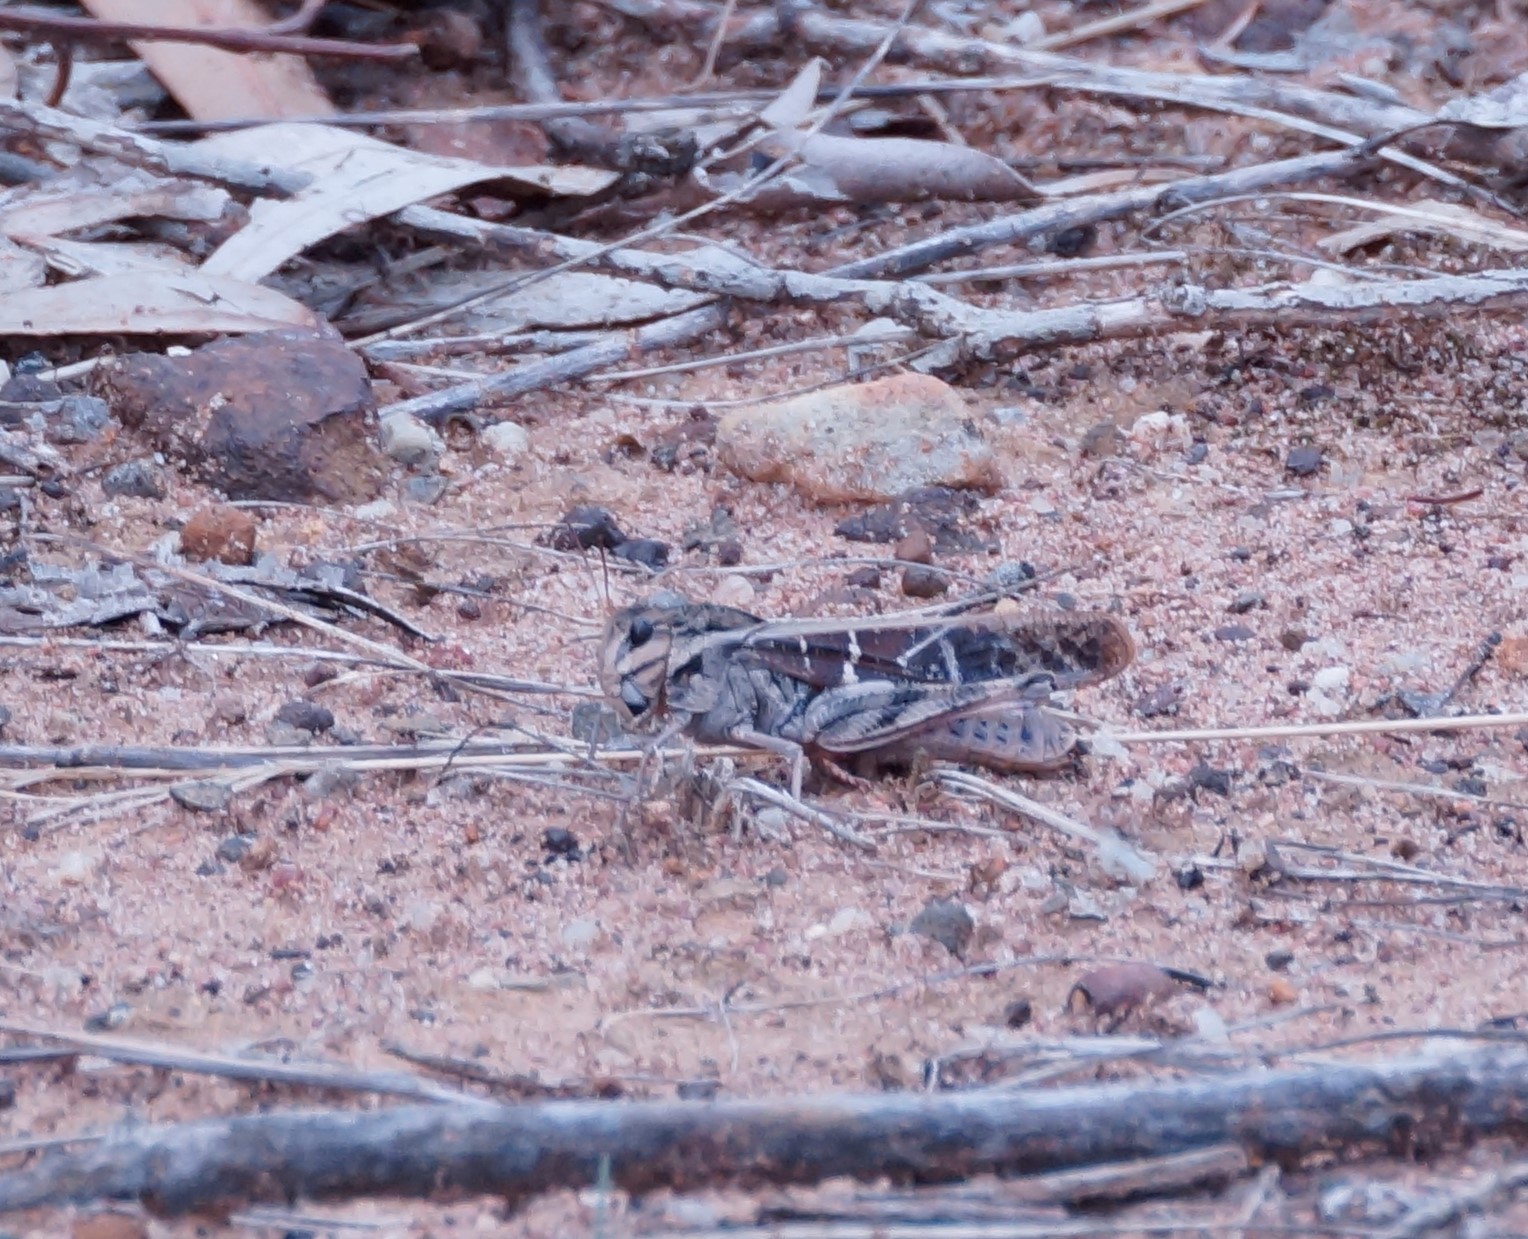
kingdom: Animalia
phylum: Arthropoda
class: Insecta
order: Orthoptera
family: Acrididae
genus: Gastrimargus
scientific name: Gastrimargus musicus
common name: Yellow-winged locust
